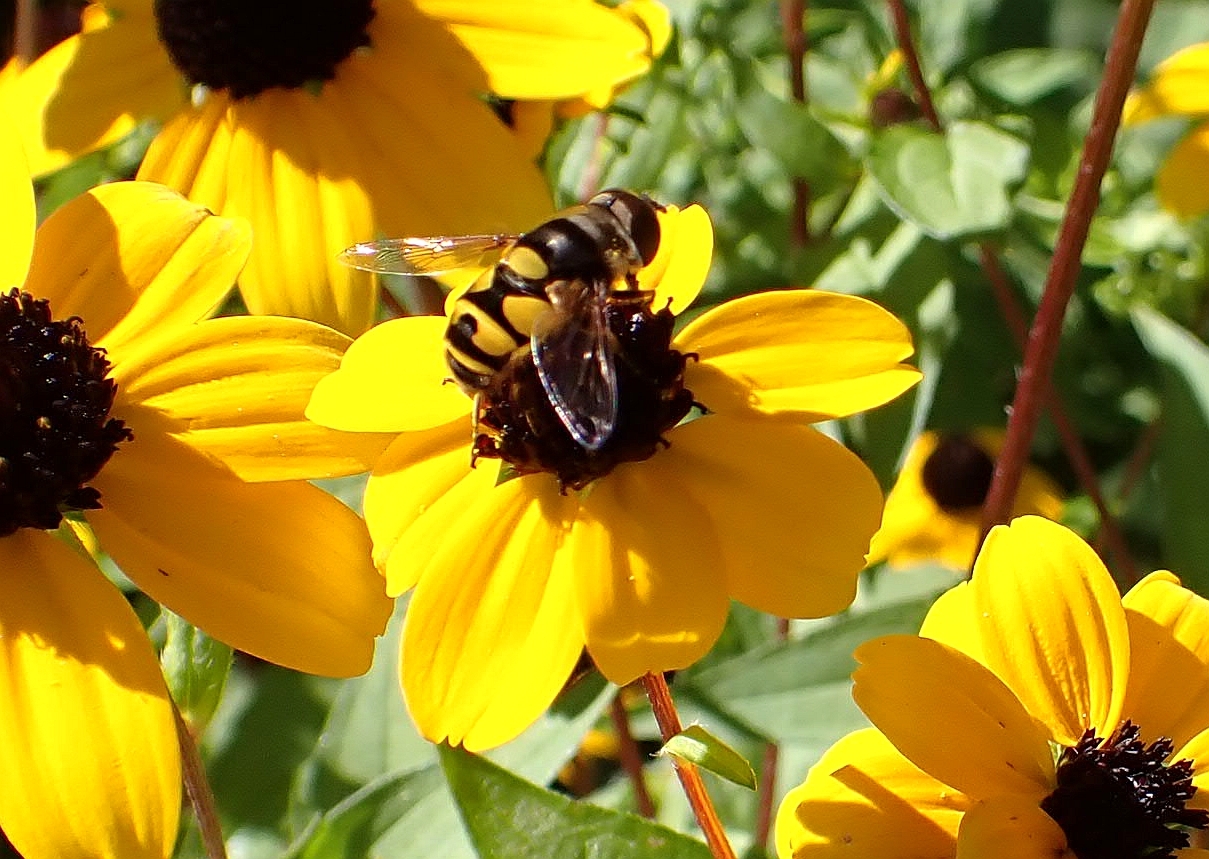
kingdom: Animalia
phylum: Arthropoda
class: Insecta
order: Diptera
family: Syrphidae
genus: Eristalis
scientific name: Eristalis transversa
